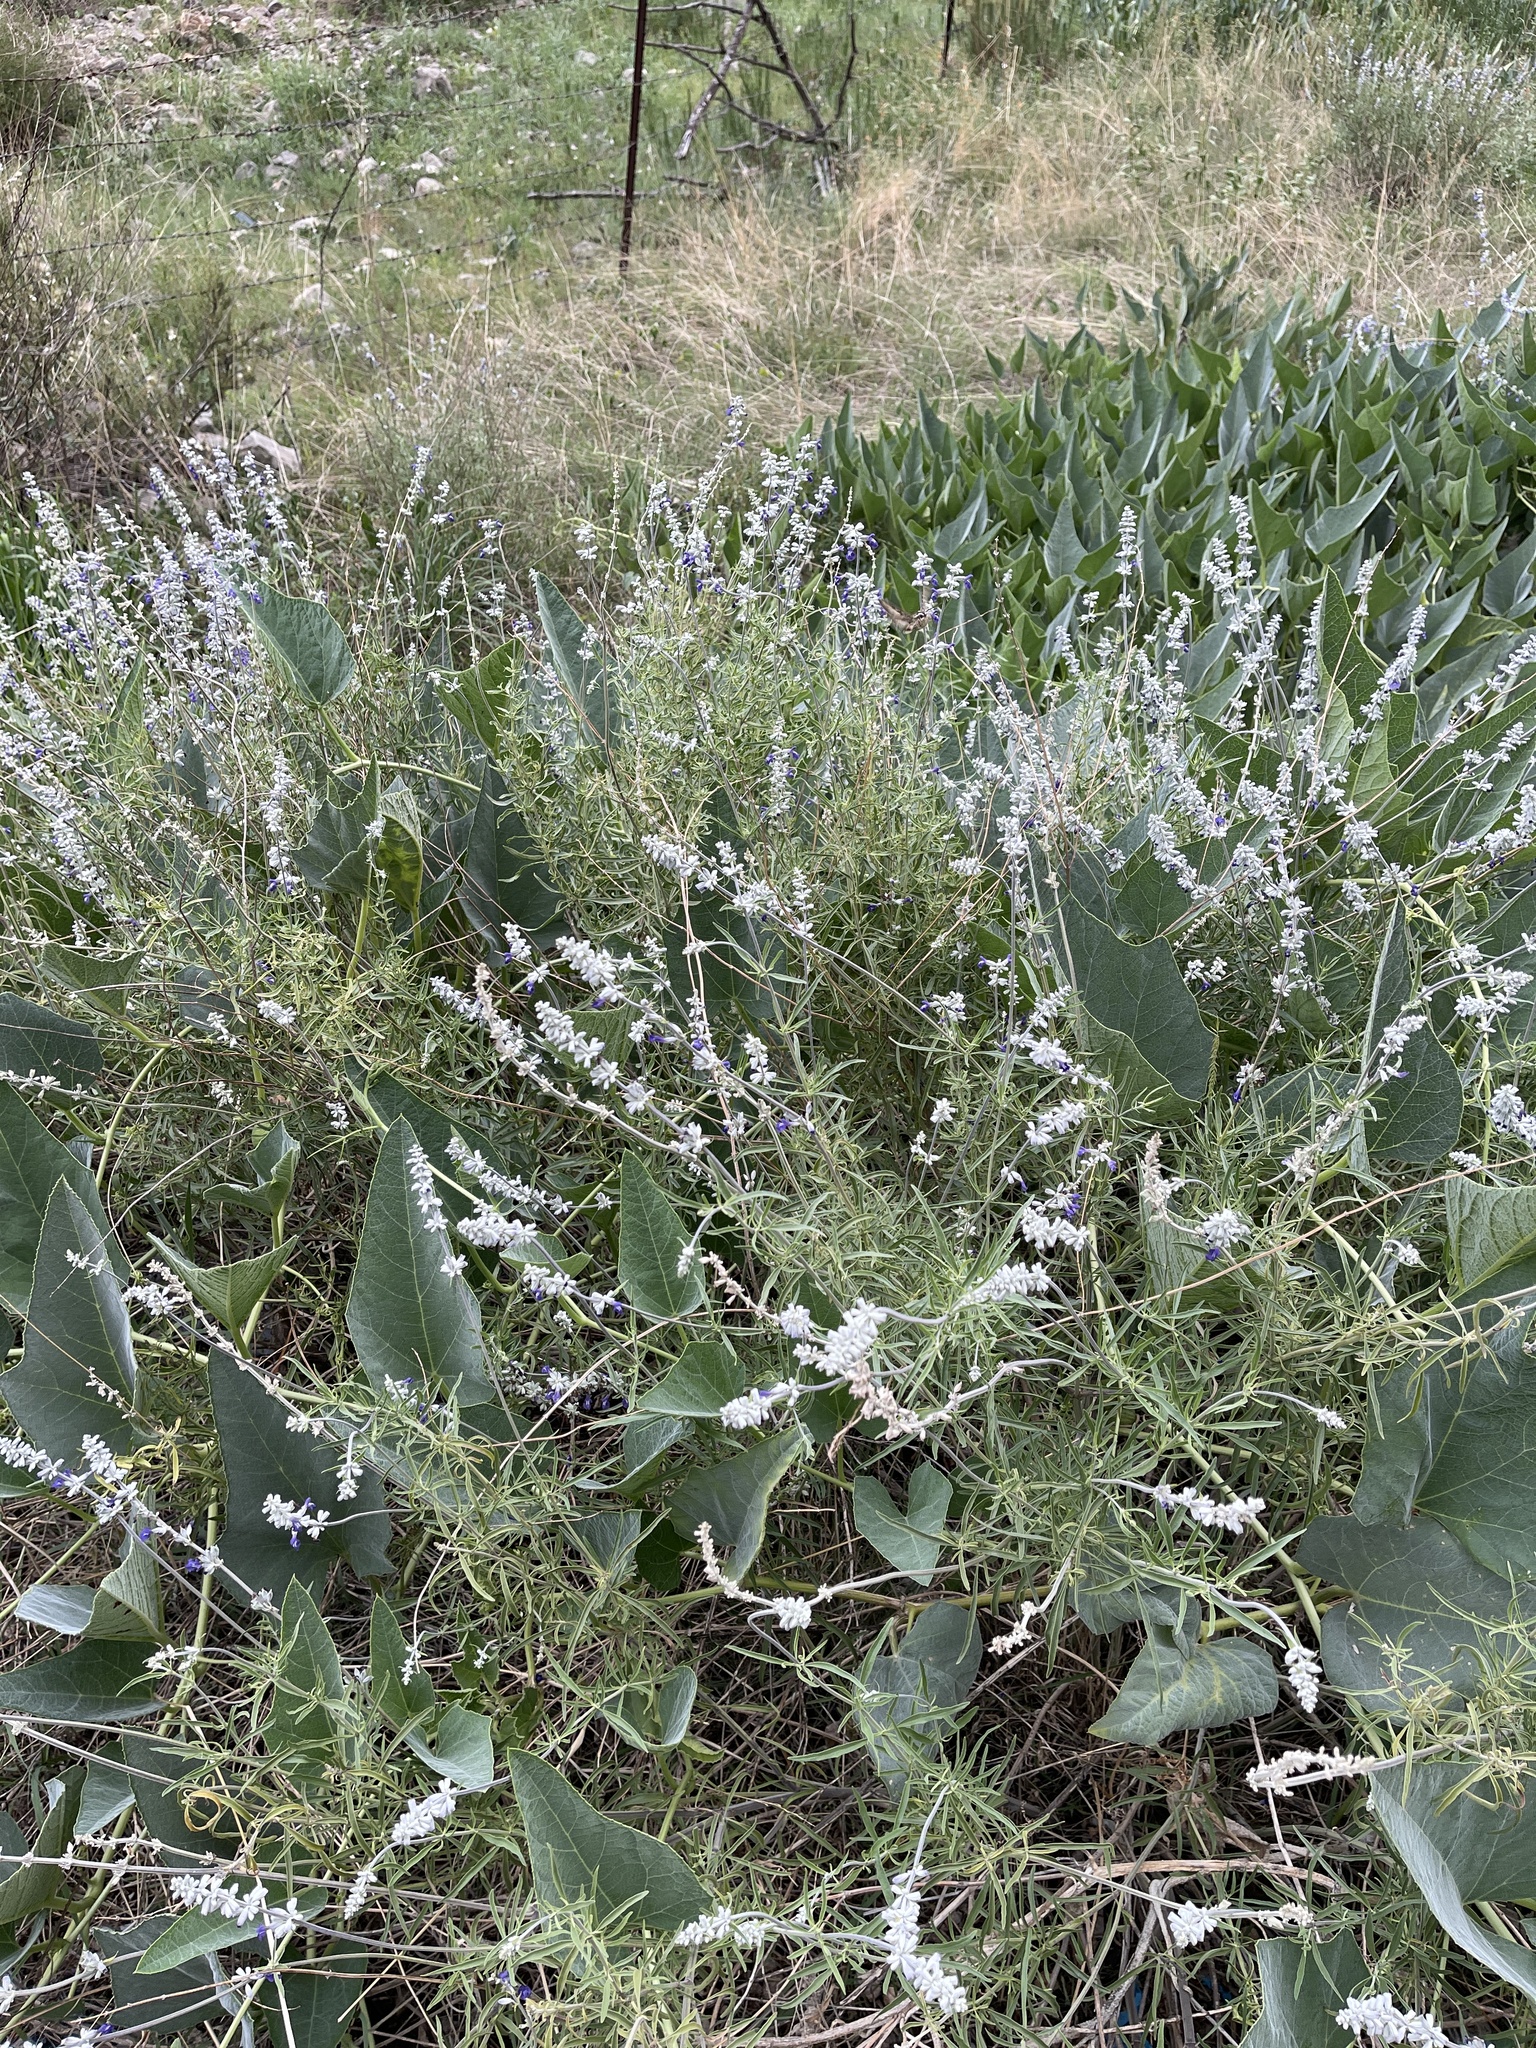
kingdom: Plantae
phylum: Tracheophyta
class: Magnoliopsida
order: Lamiales
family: Lamiaceae
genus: Salvia
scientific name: Salvia farinacea
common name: Mealy sage
